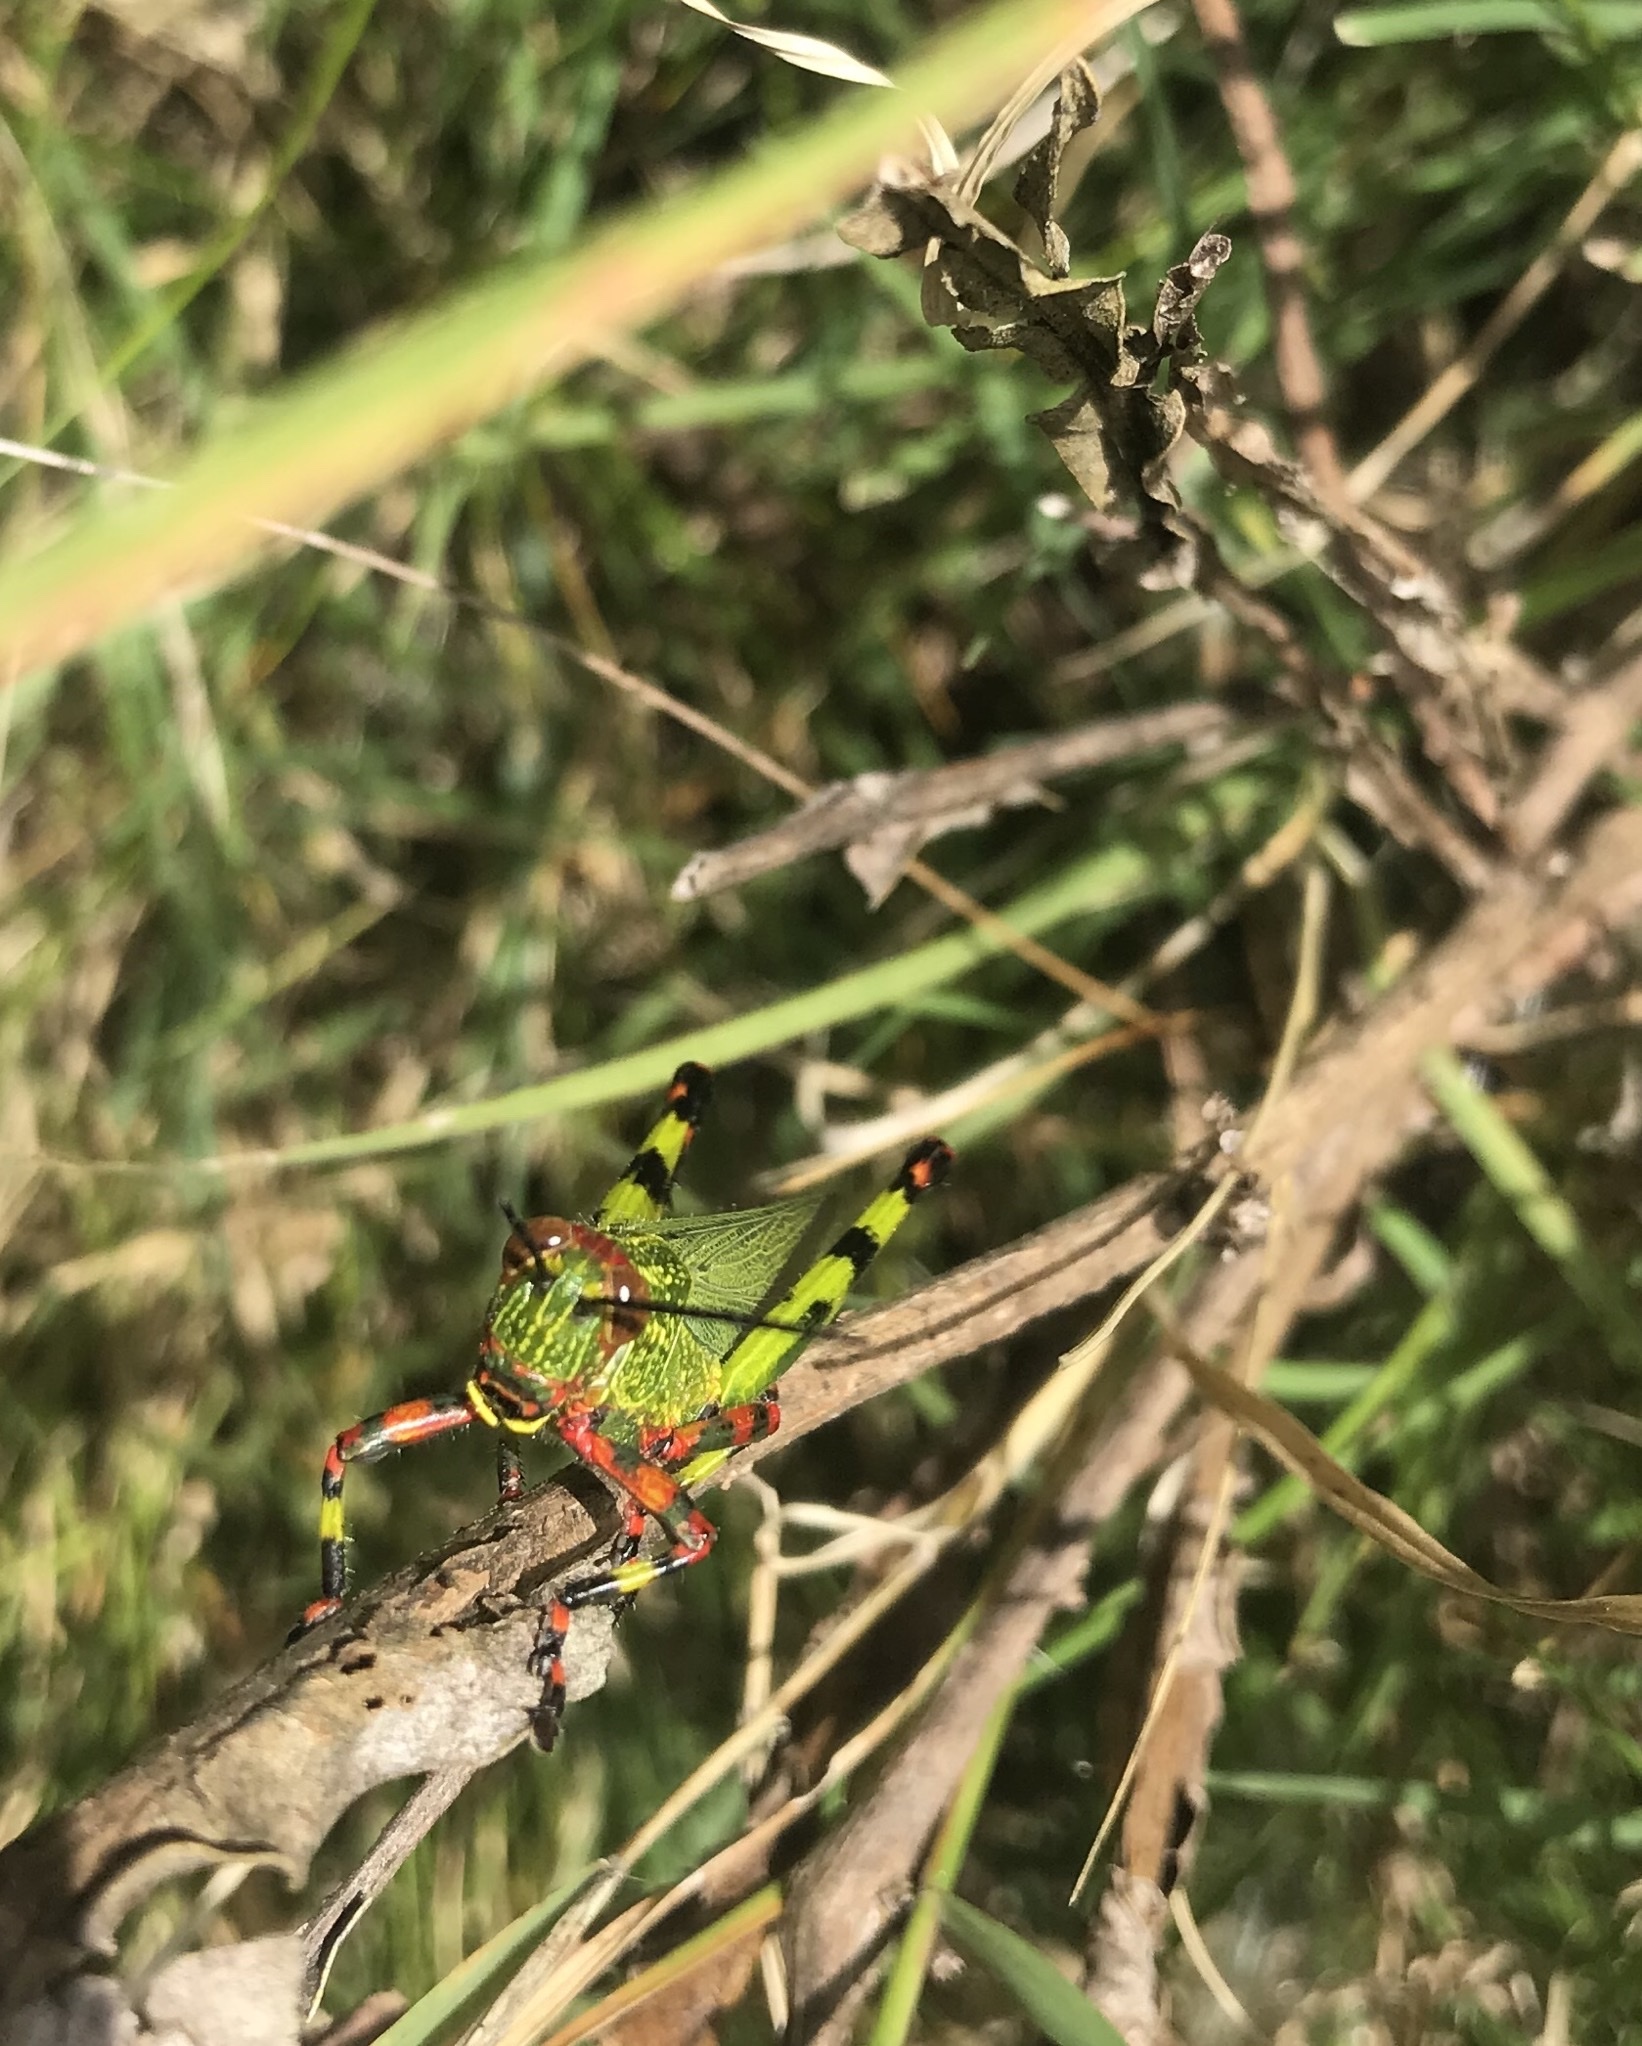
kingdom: Animalia
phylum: Arthropoda
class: Insecta
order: Orthoptera
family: Romaleidae
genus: Zoniopoda
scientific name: Zoniopoda tarsata
